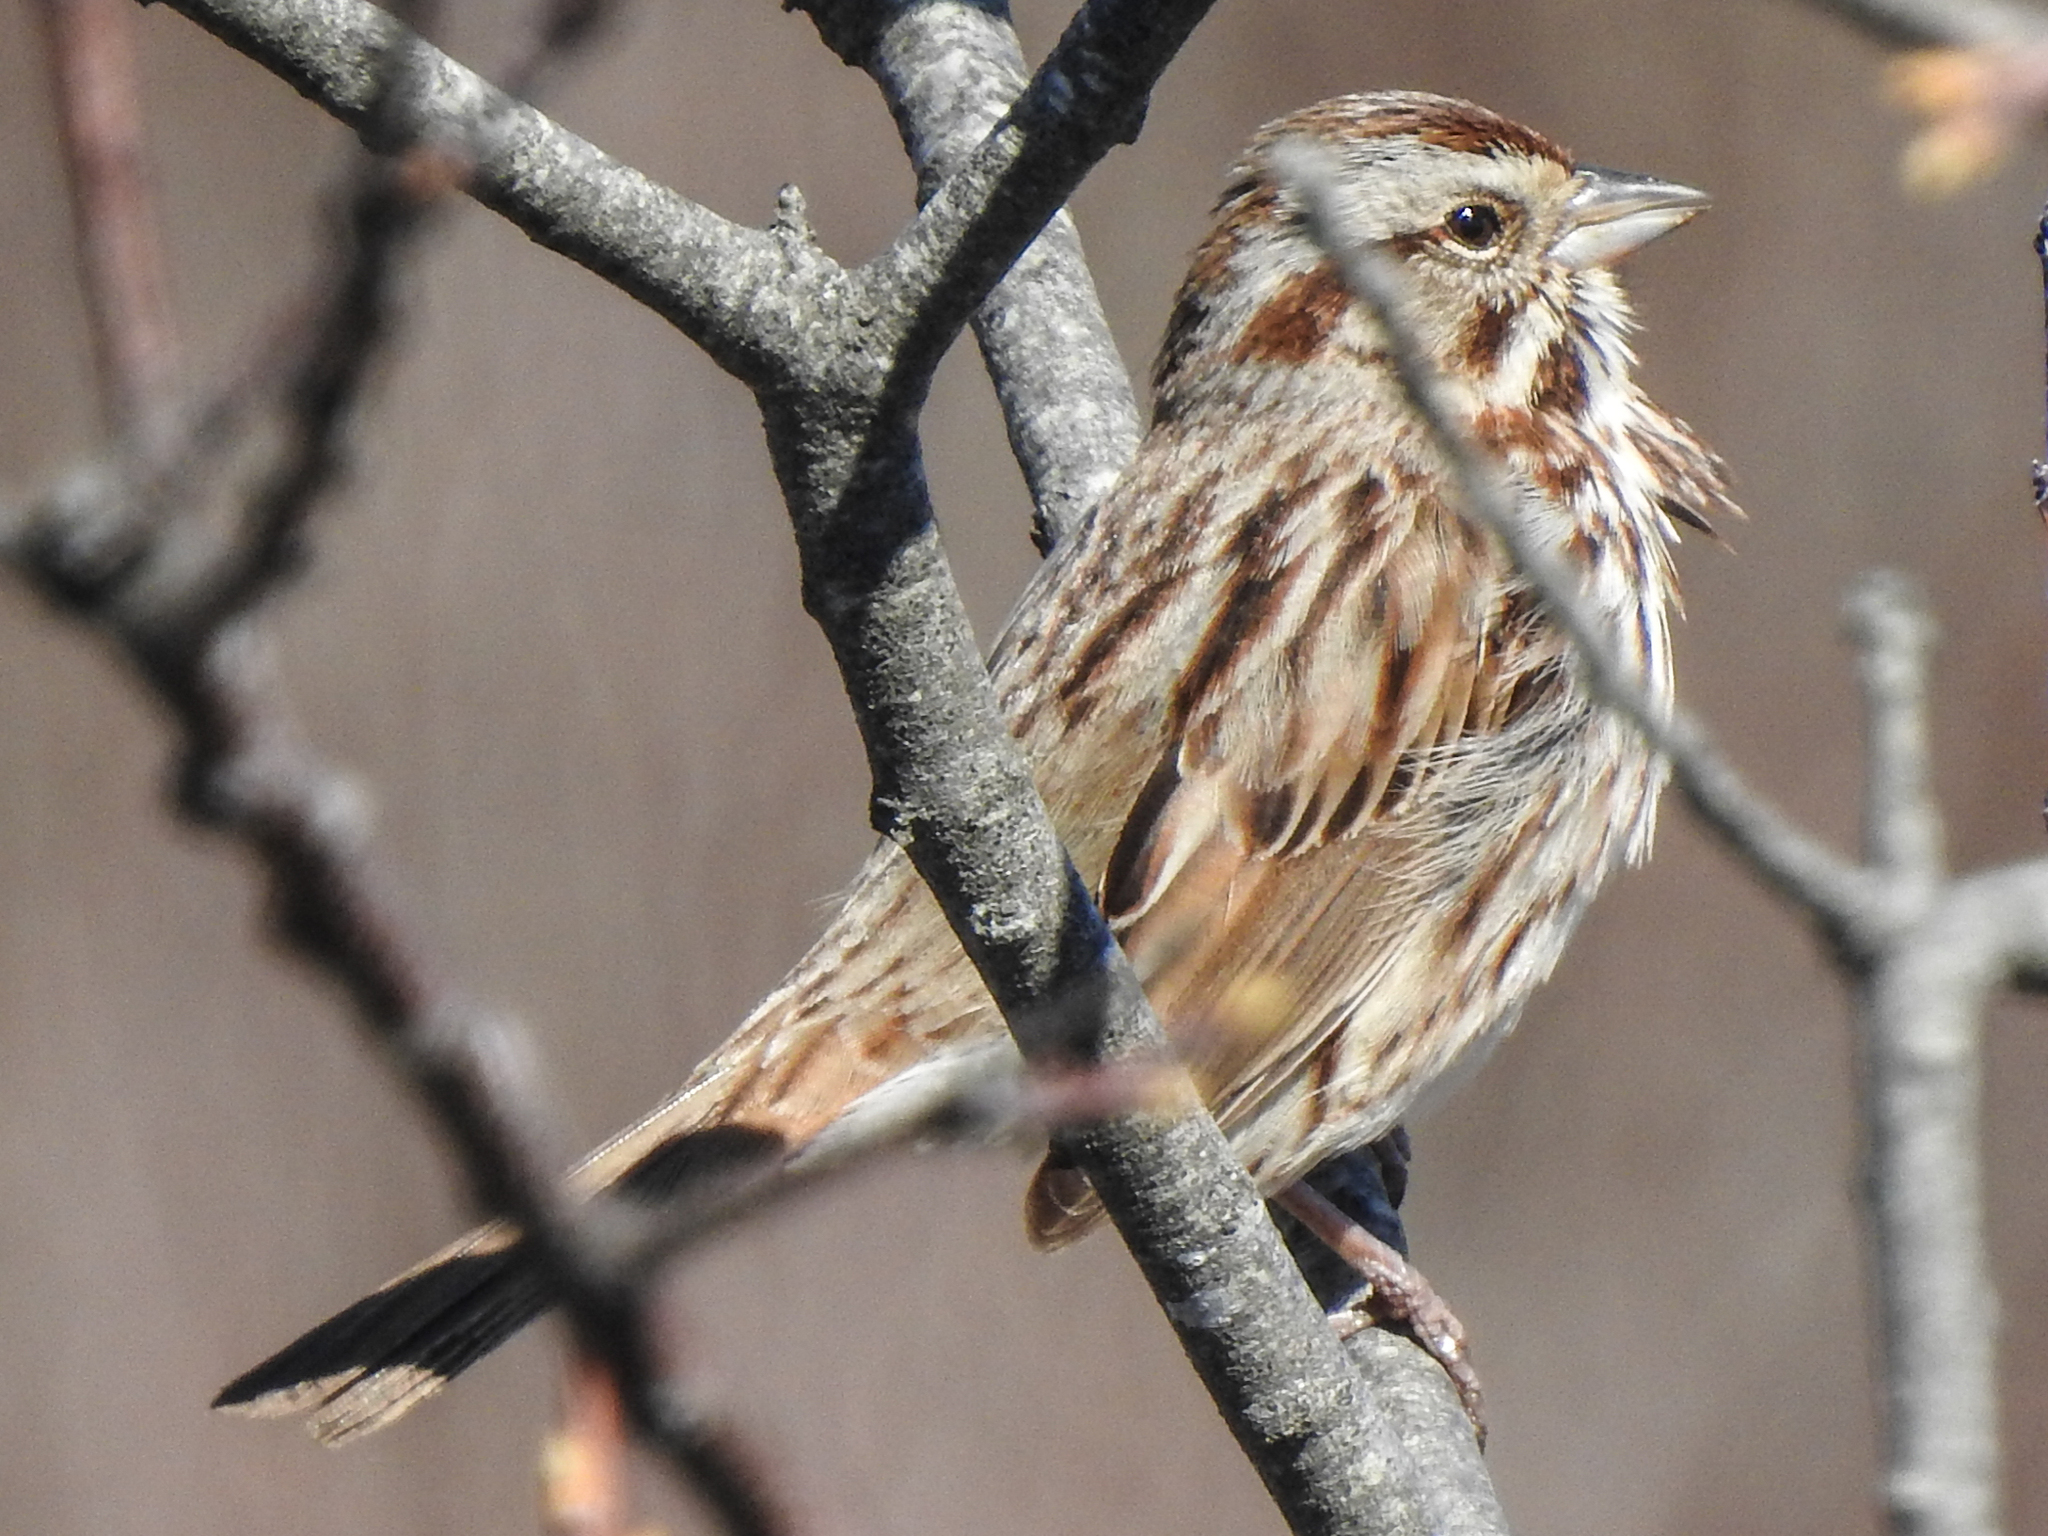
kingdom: Animalia
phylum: Chordata
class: Aves
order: Passeriformes
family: Passerellidae
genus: Melospiza
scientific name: Melospiza melodia
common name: Song sparrow
